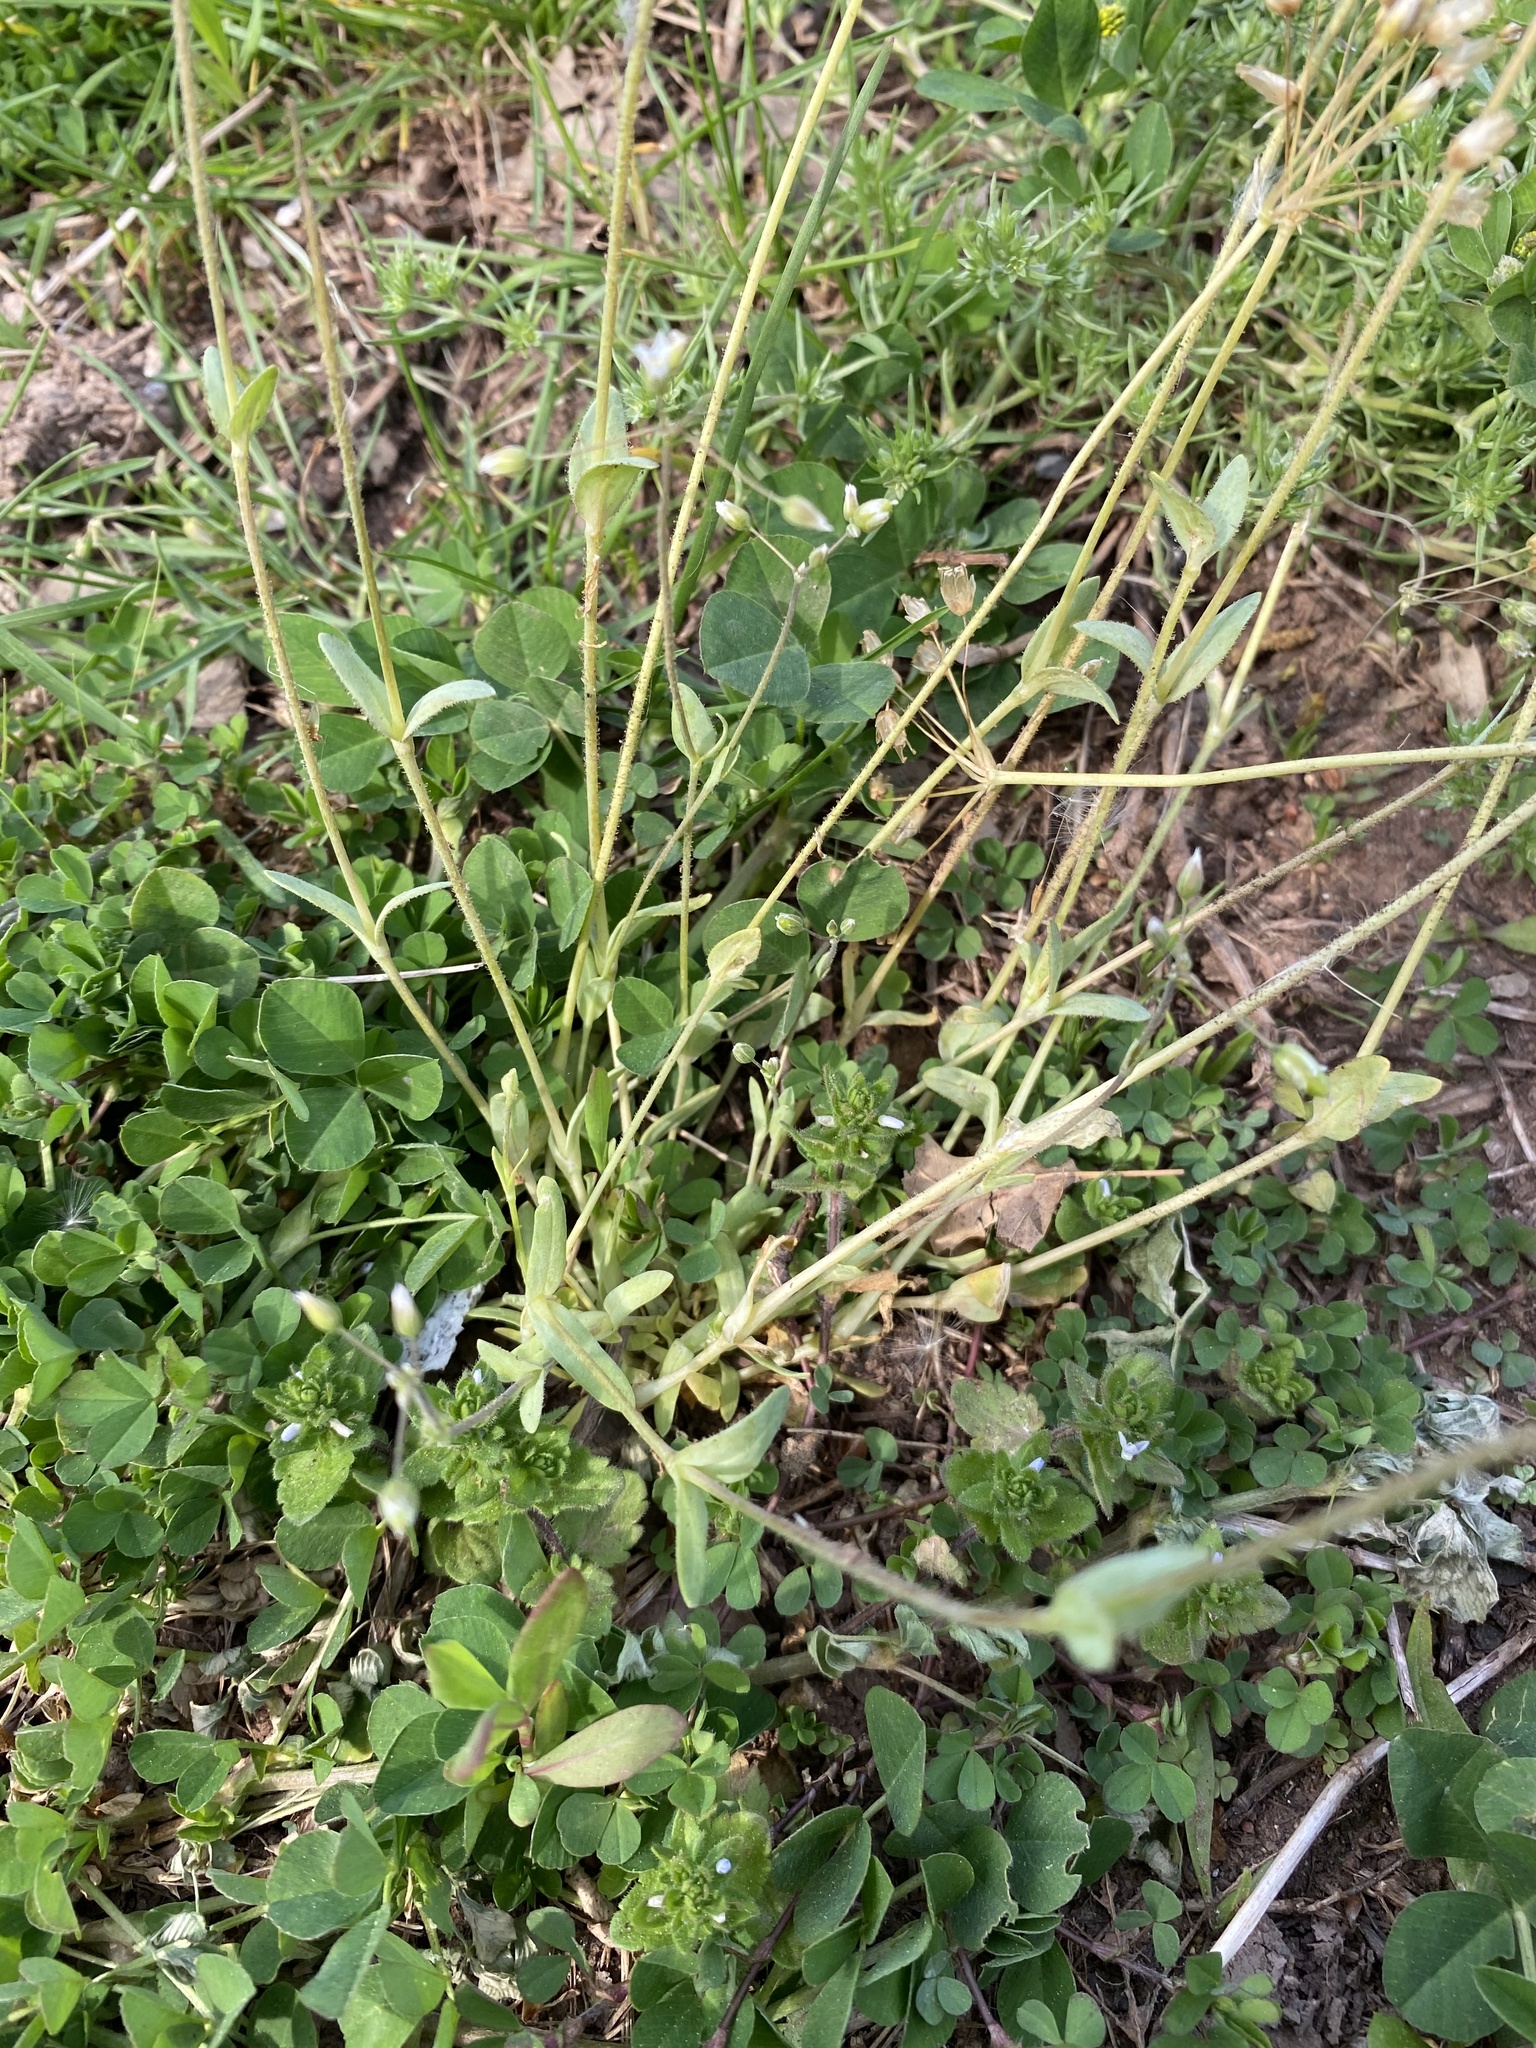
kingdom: Plantae
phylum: Tracheophyta
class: Magnoliopsida
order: Caryophyllales
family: Caryophyllaceae
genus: Holosteum
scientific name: Holosteum umbellatum
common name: Jagged chickweed
